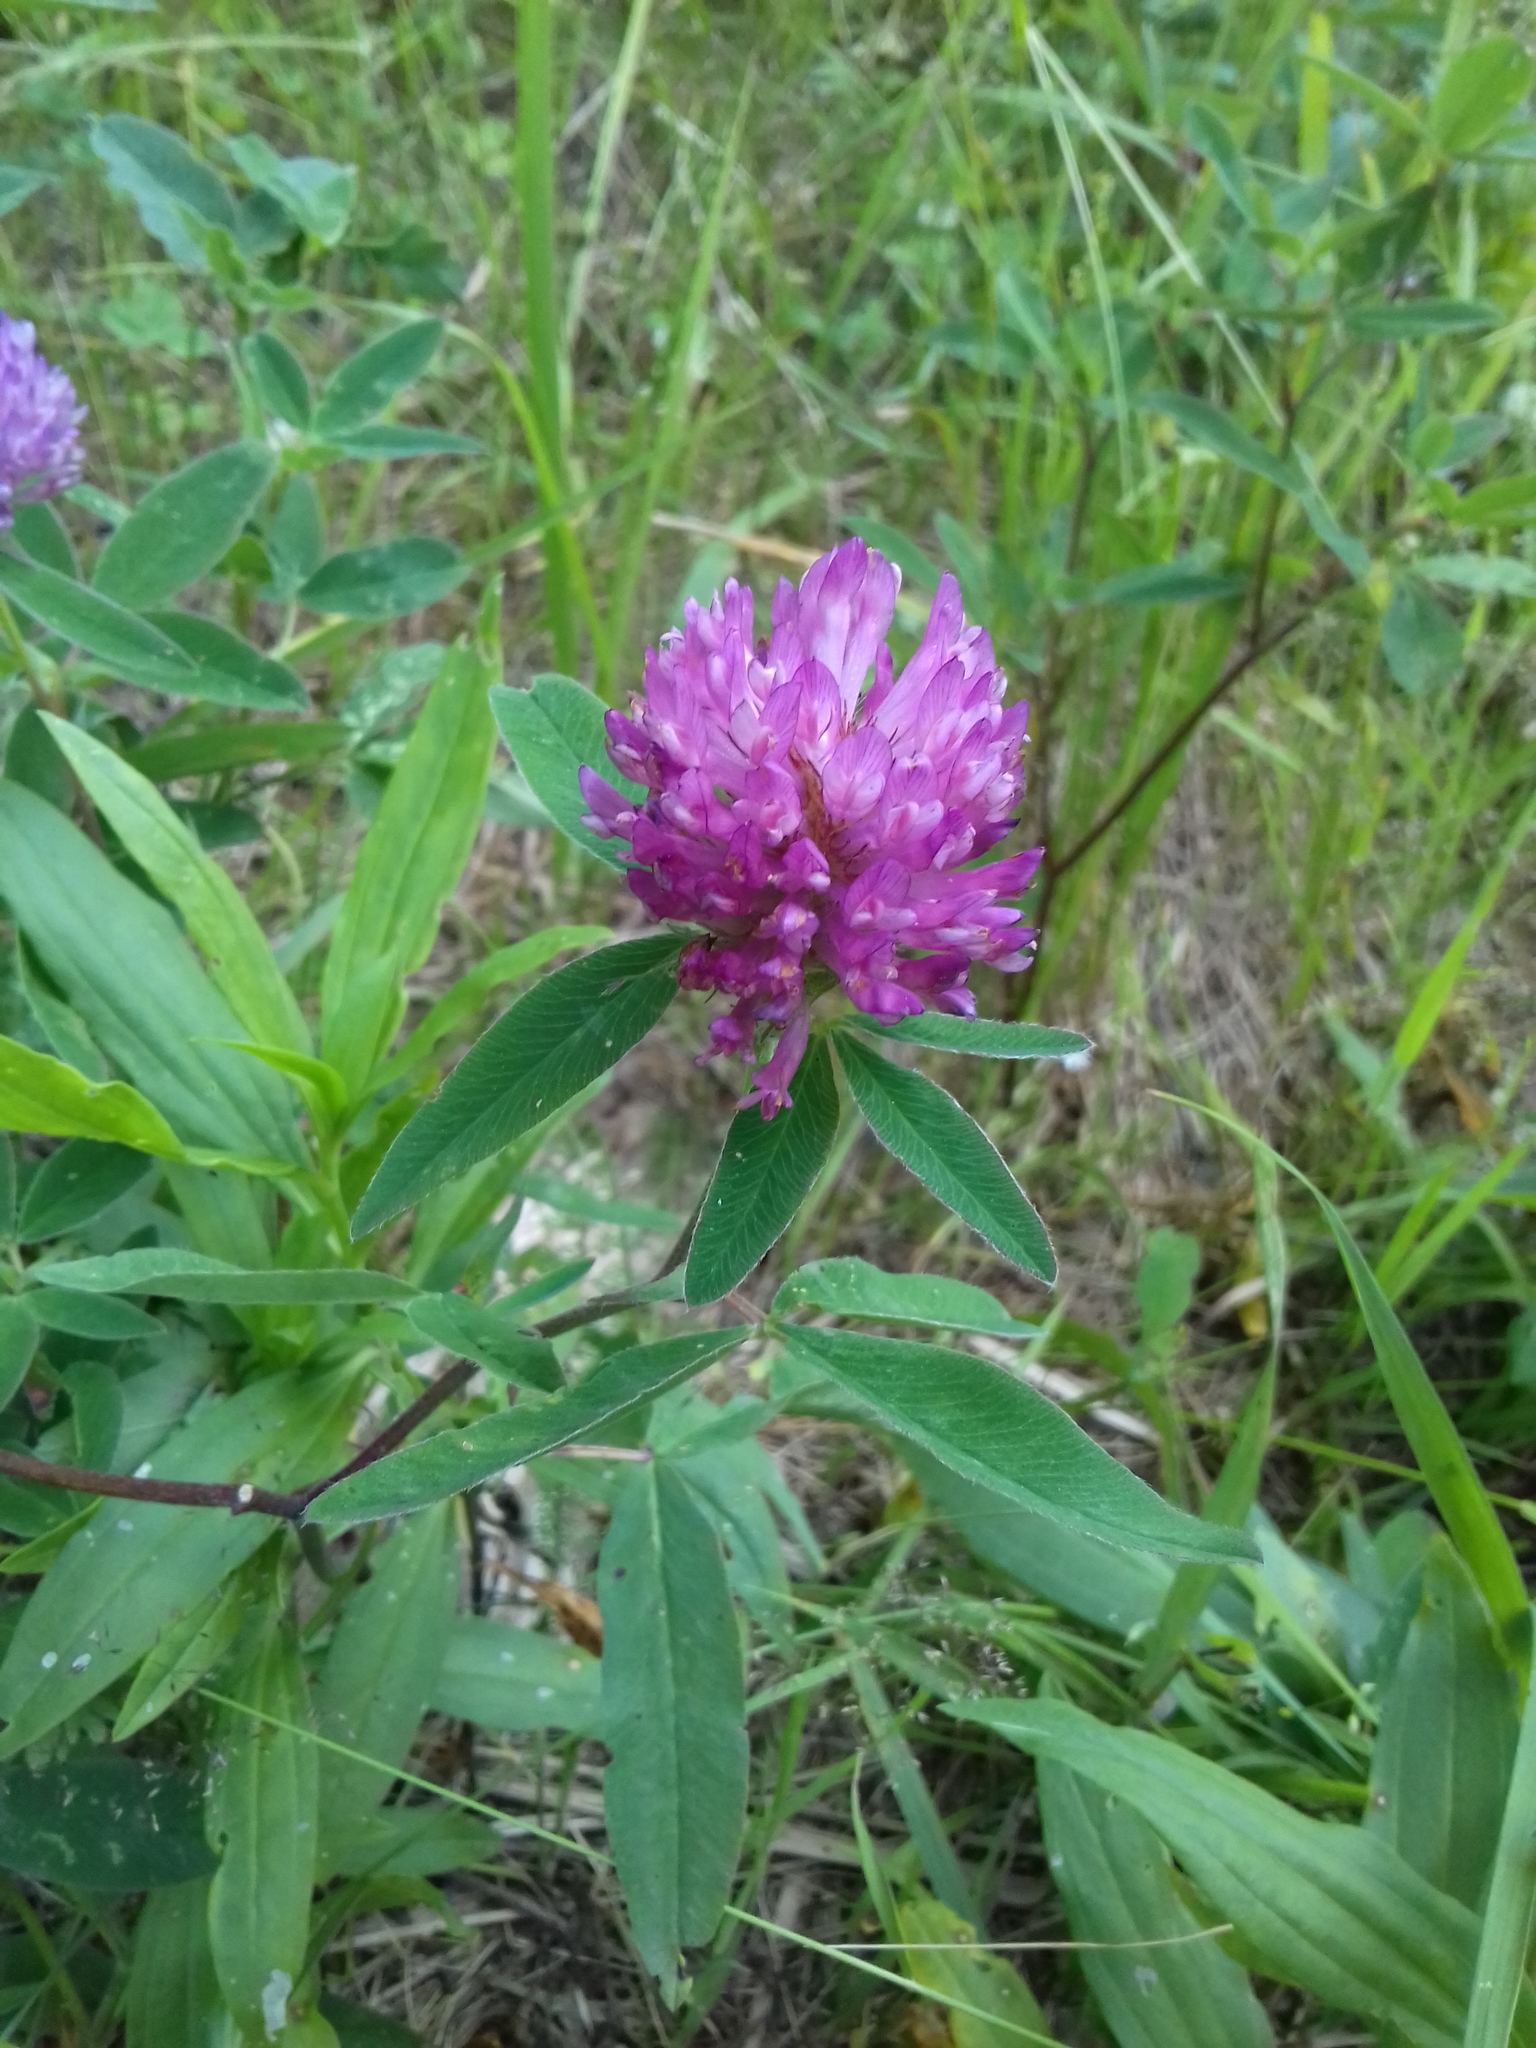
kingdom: Plantae
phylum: Tracheophyta
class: Magnoliopsida
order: Fabales
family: Fabaceae
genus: Trifolium
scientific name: Trifolium medium
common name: Zigzag clover
